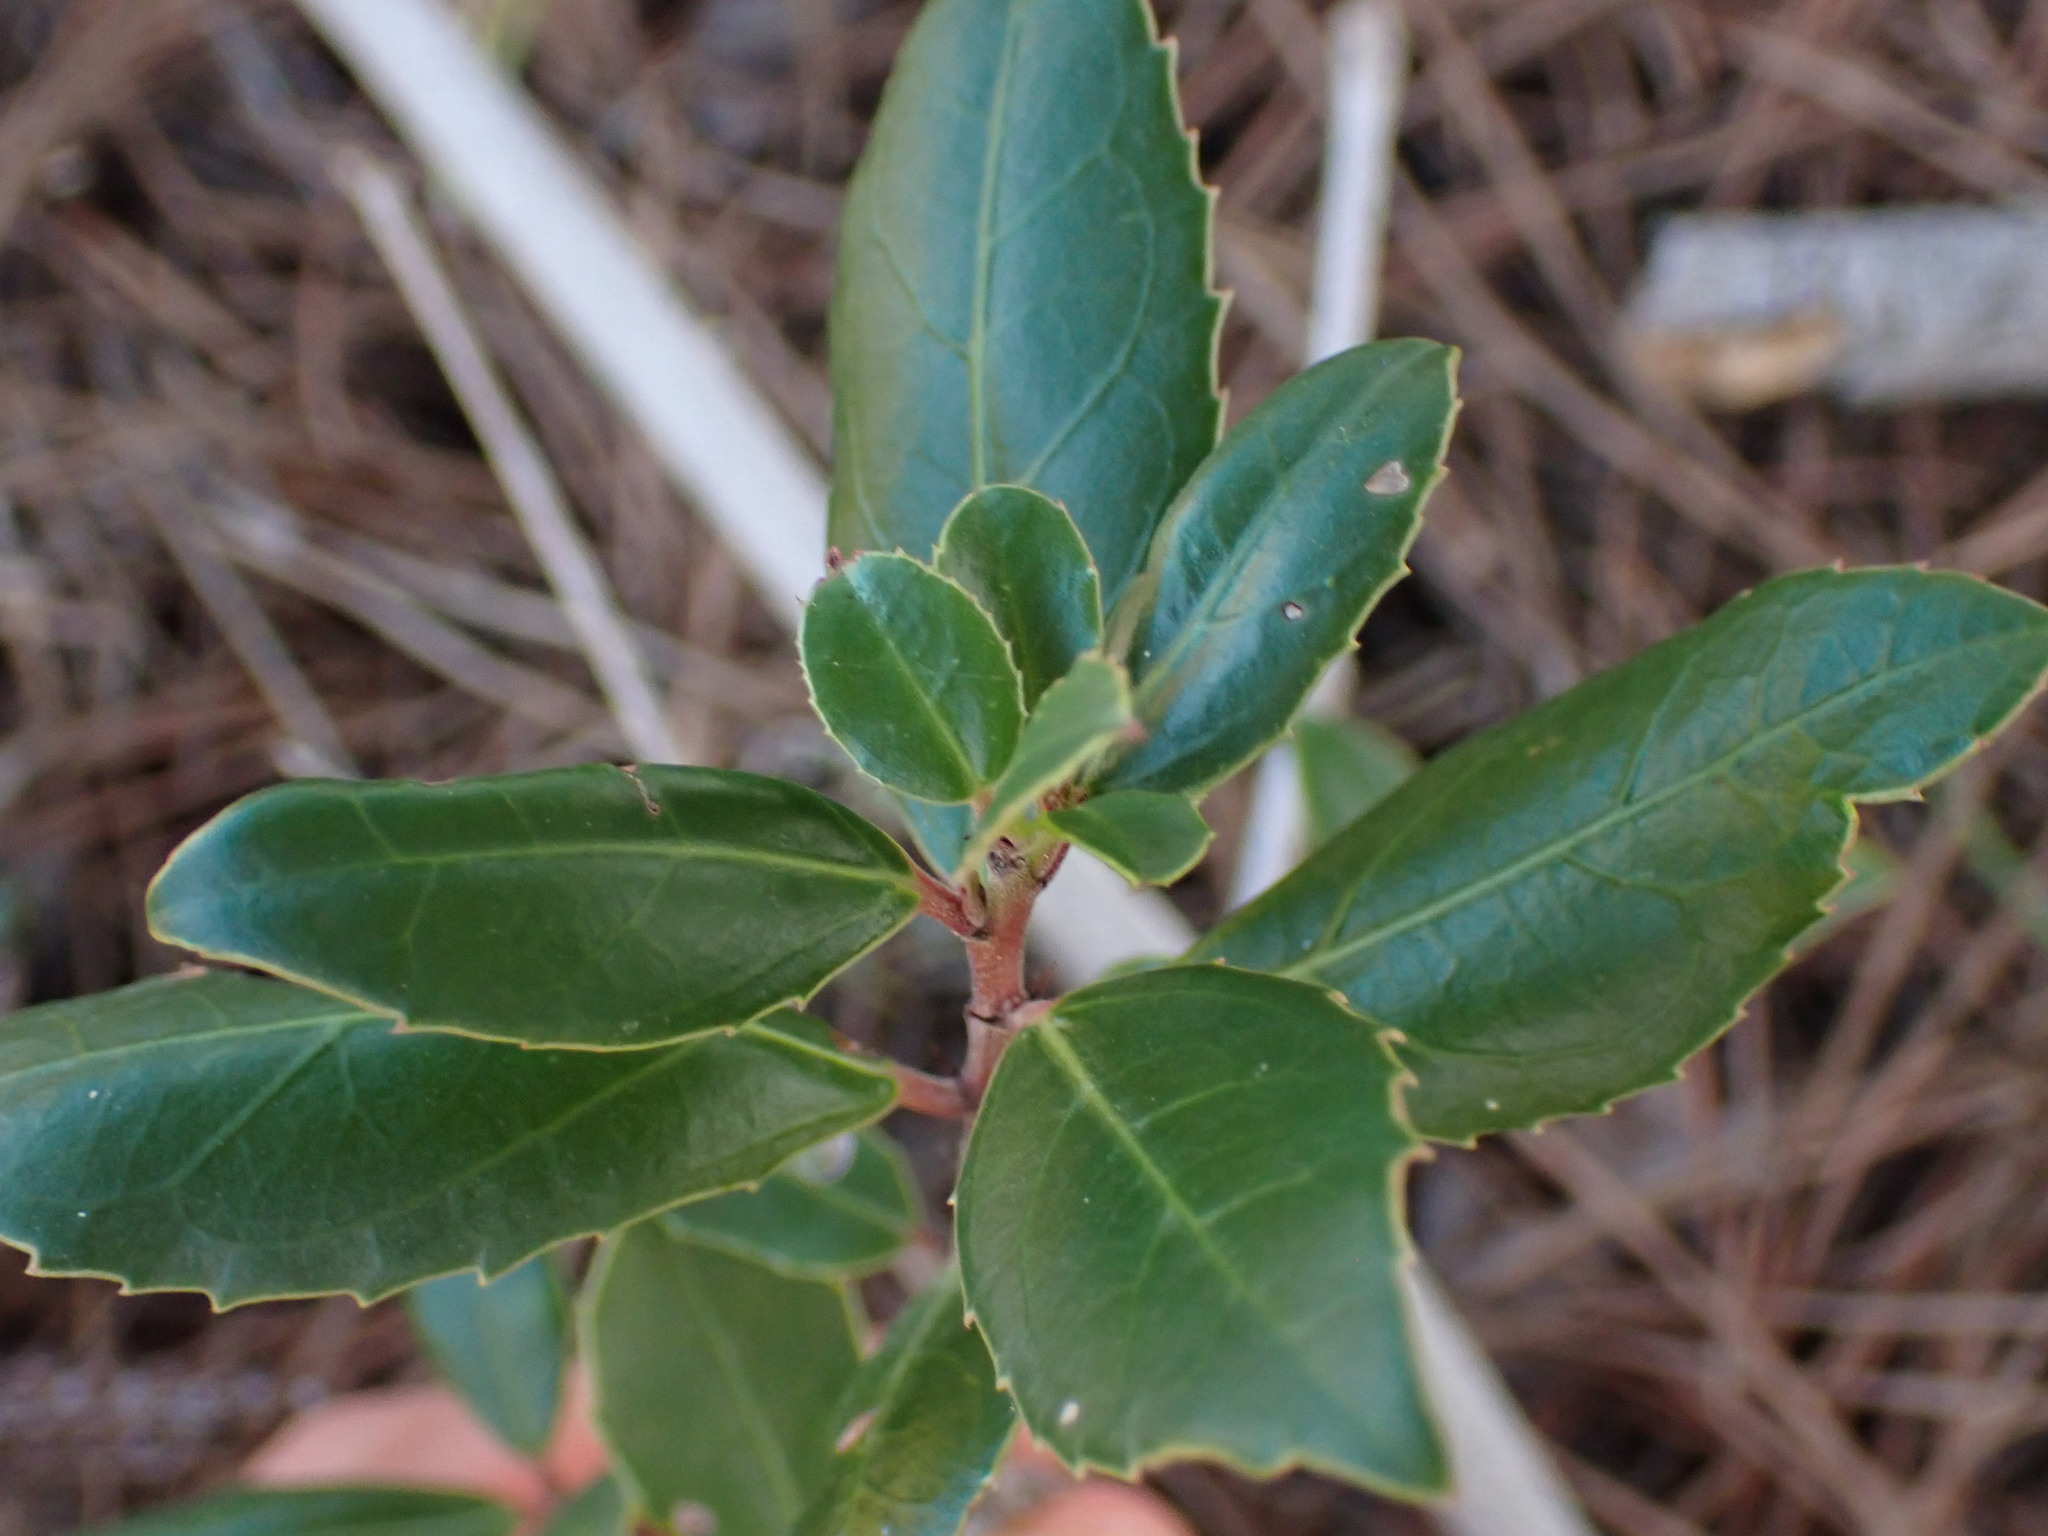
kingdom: Plantae
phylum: Tracheophyta
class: Magnoliopsida
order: Rosales
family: Rhamnaceae
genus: Rhamnus
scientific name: Rhamnus alaternus
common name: Mediterranean buckthorn
